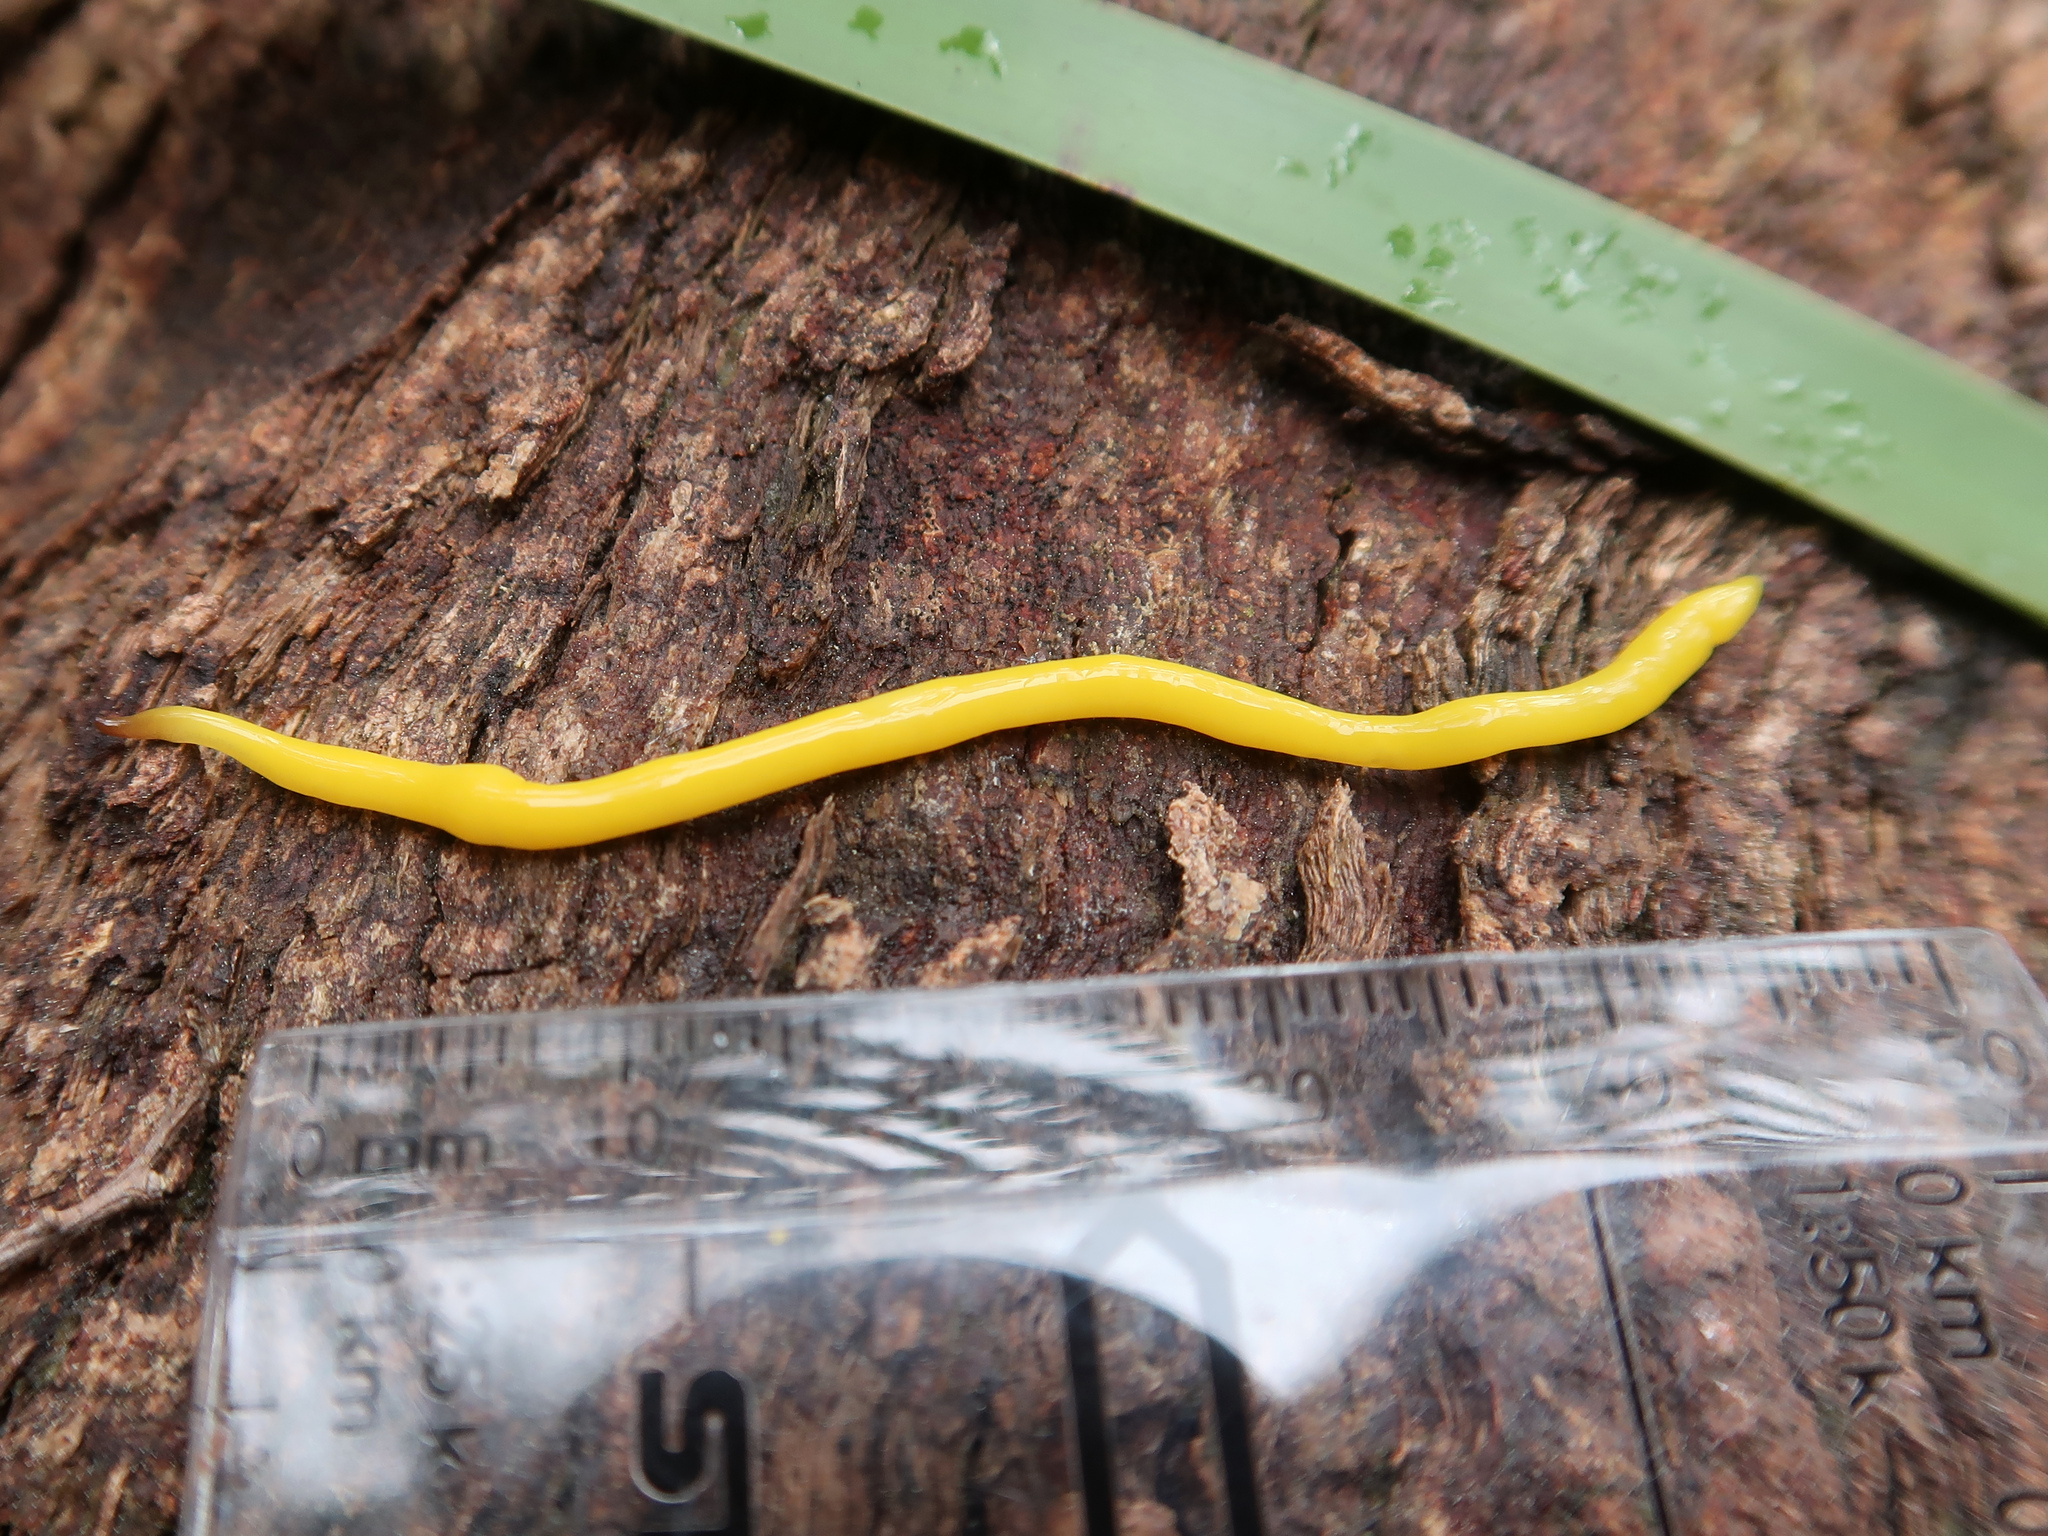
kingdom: Animalia
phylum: Platyhelminthes
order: Tricladida
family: Geoplanidae
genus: Fletchamia
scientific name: Fletchamia sugdeni
